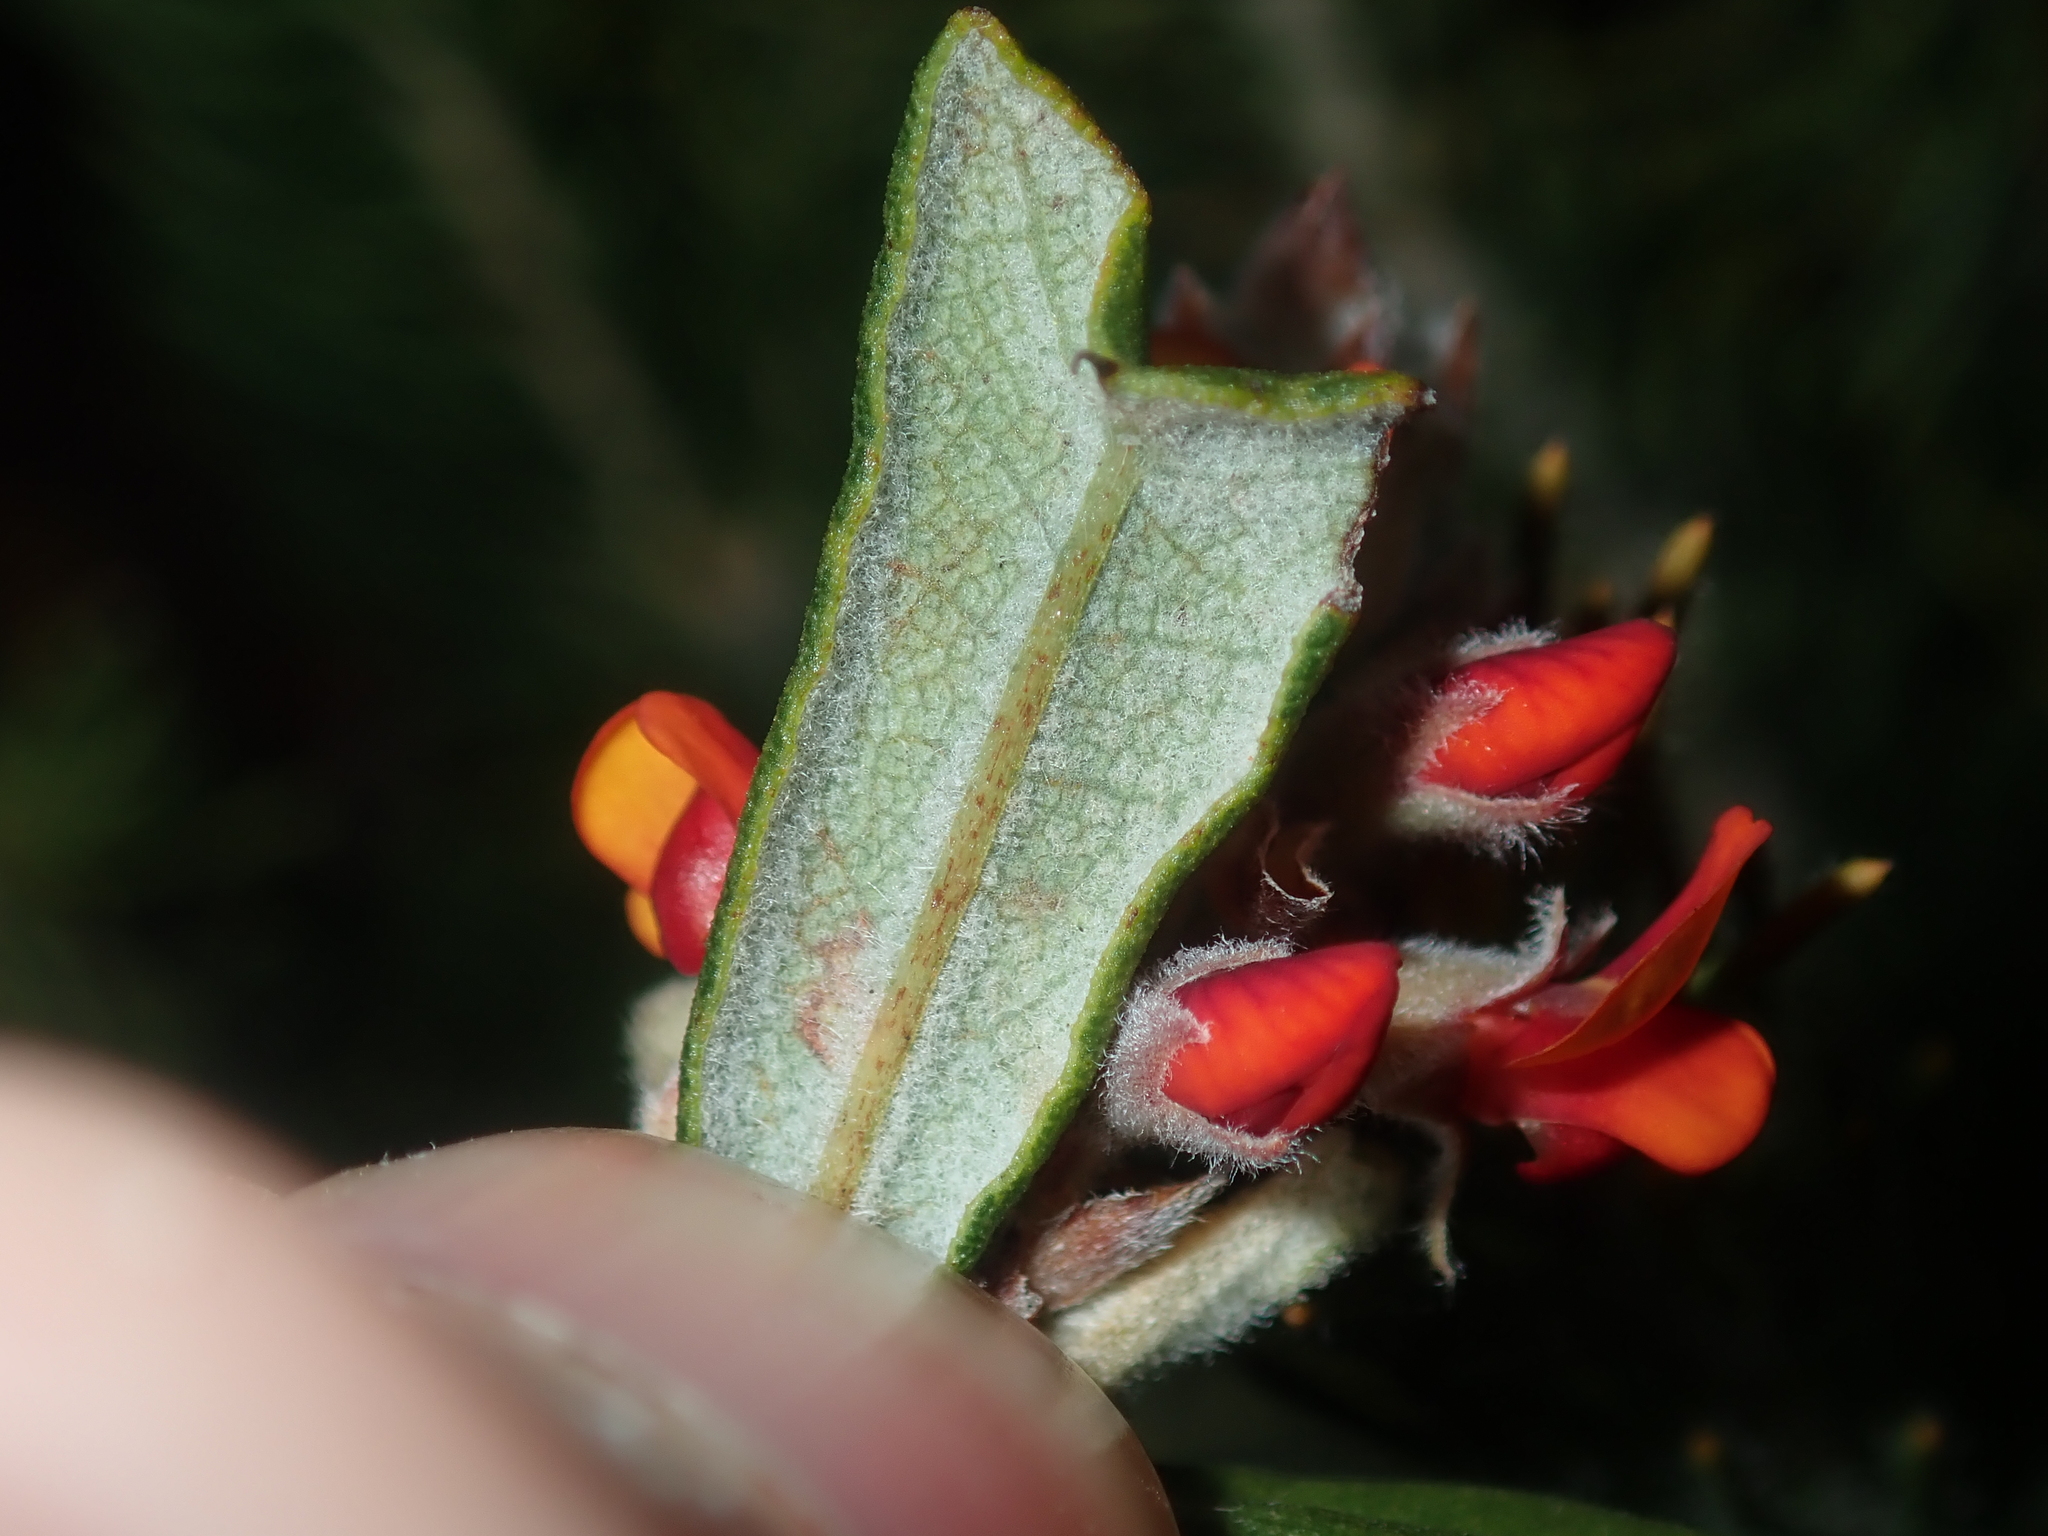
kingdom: Plantae
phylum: Tracheophyta
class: Magnoliopsida
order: Fabales
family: Fabaceae
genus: Gastrolobium
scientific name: Gastrolobium polystachyum
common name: Hill river poison
